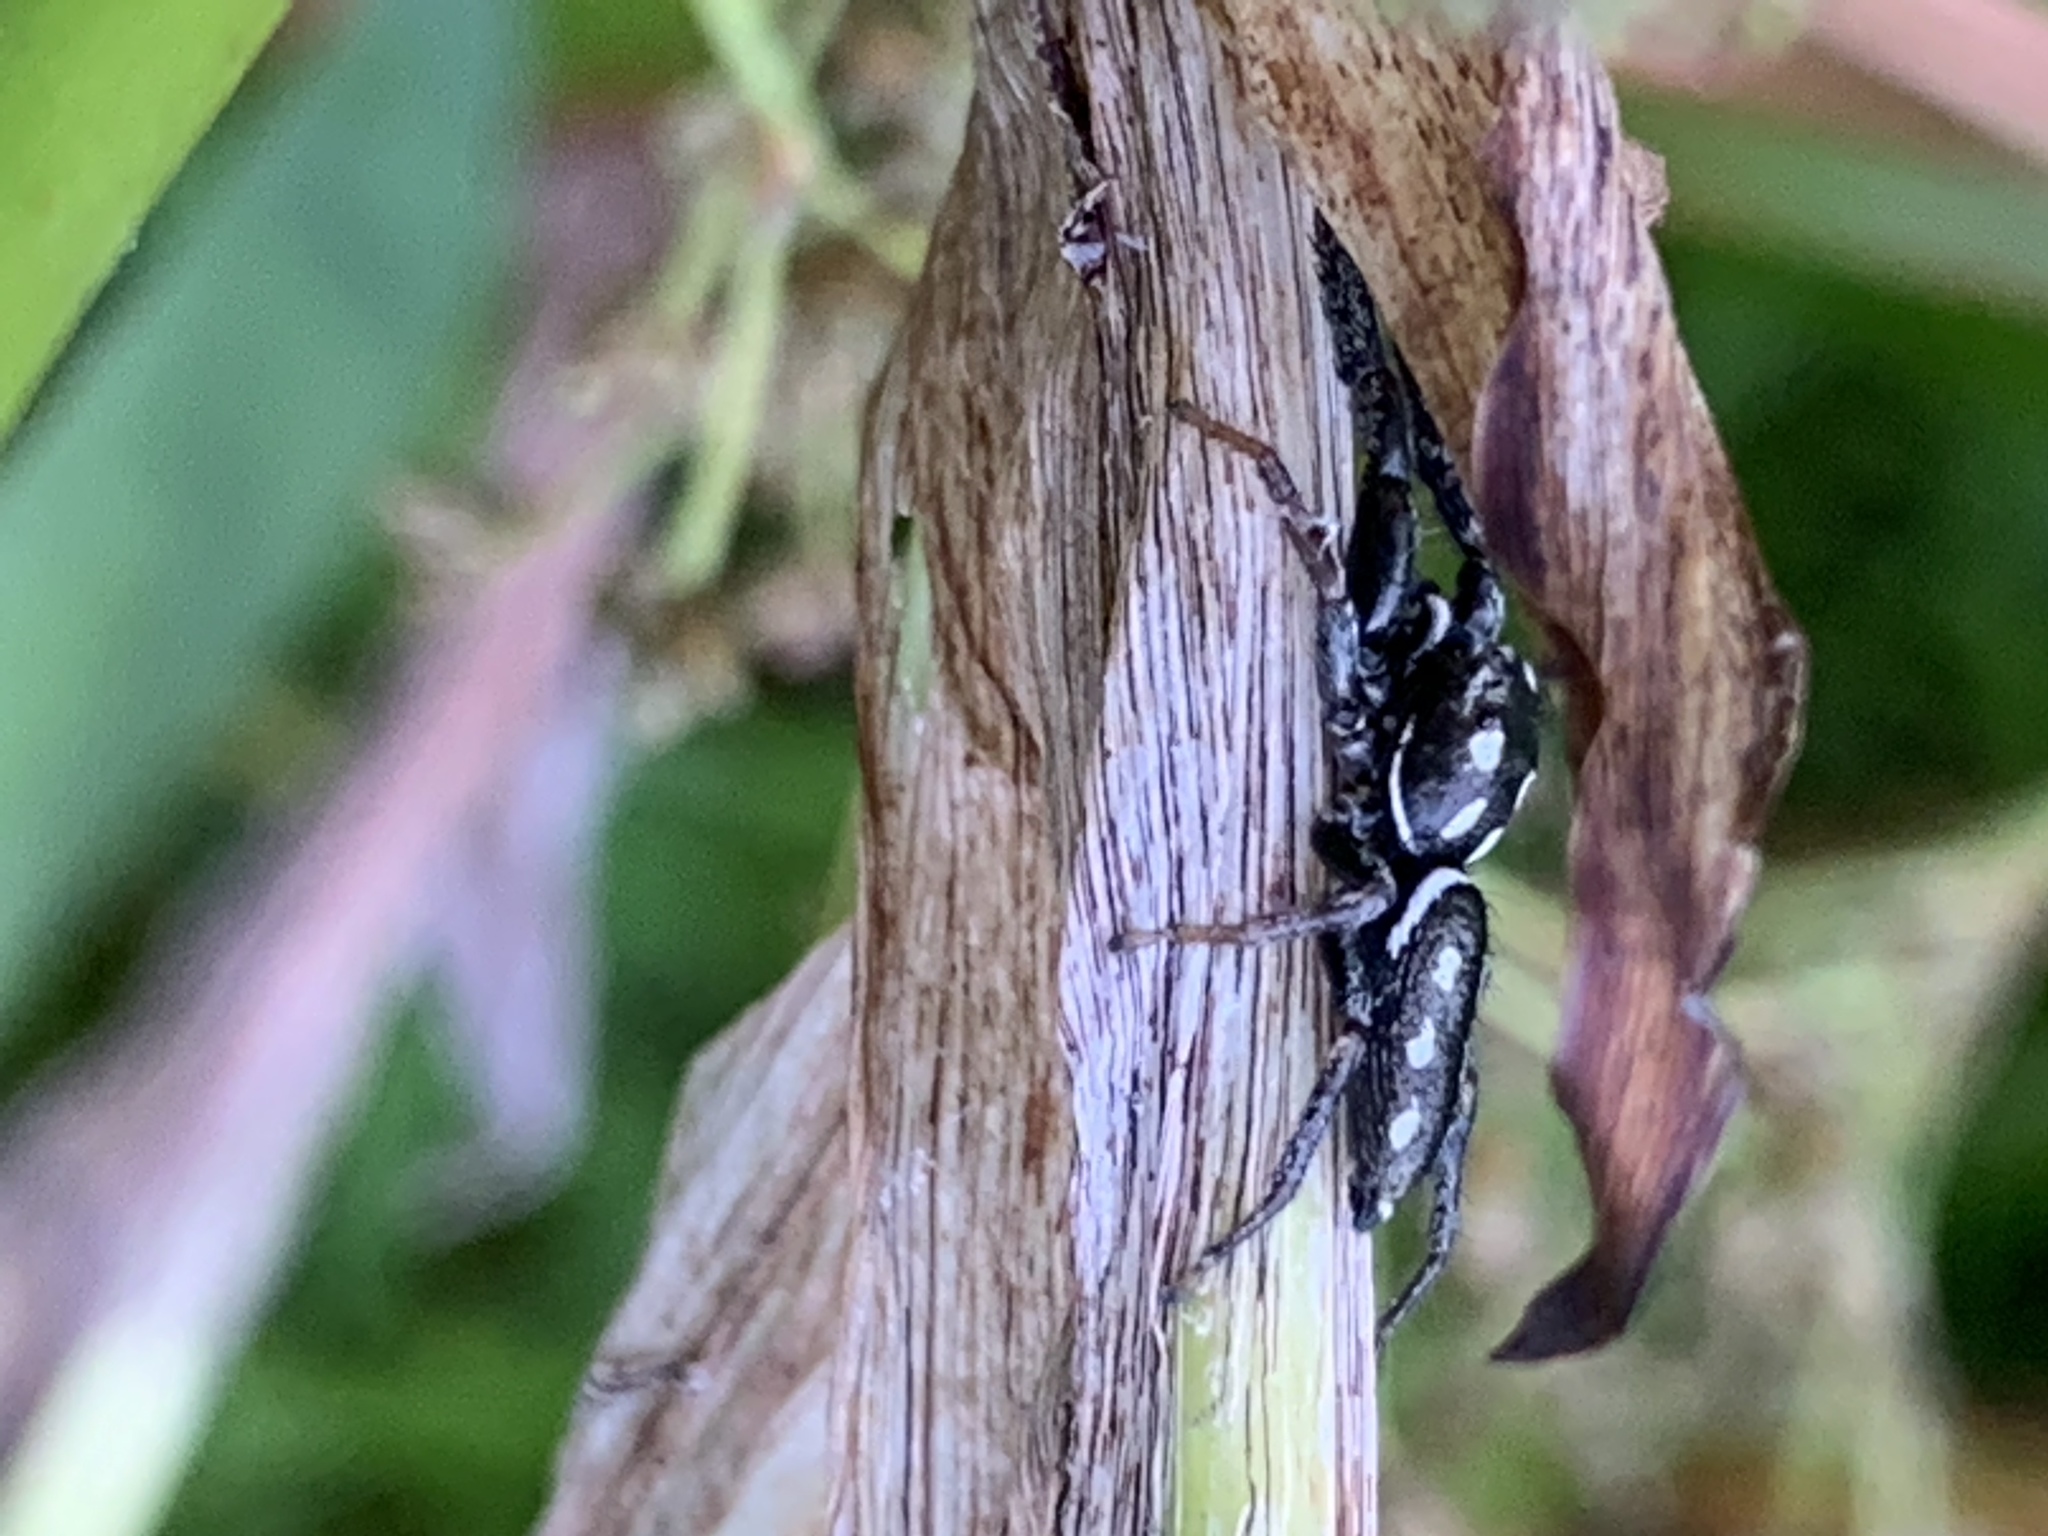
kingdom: Animalia
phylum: Arthropoda
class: Arachnida
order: Araneae
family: Salticidae
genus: Marpissa
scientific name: Marpissa formosa
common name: Short-bellied slender jumping spider
